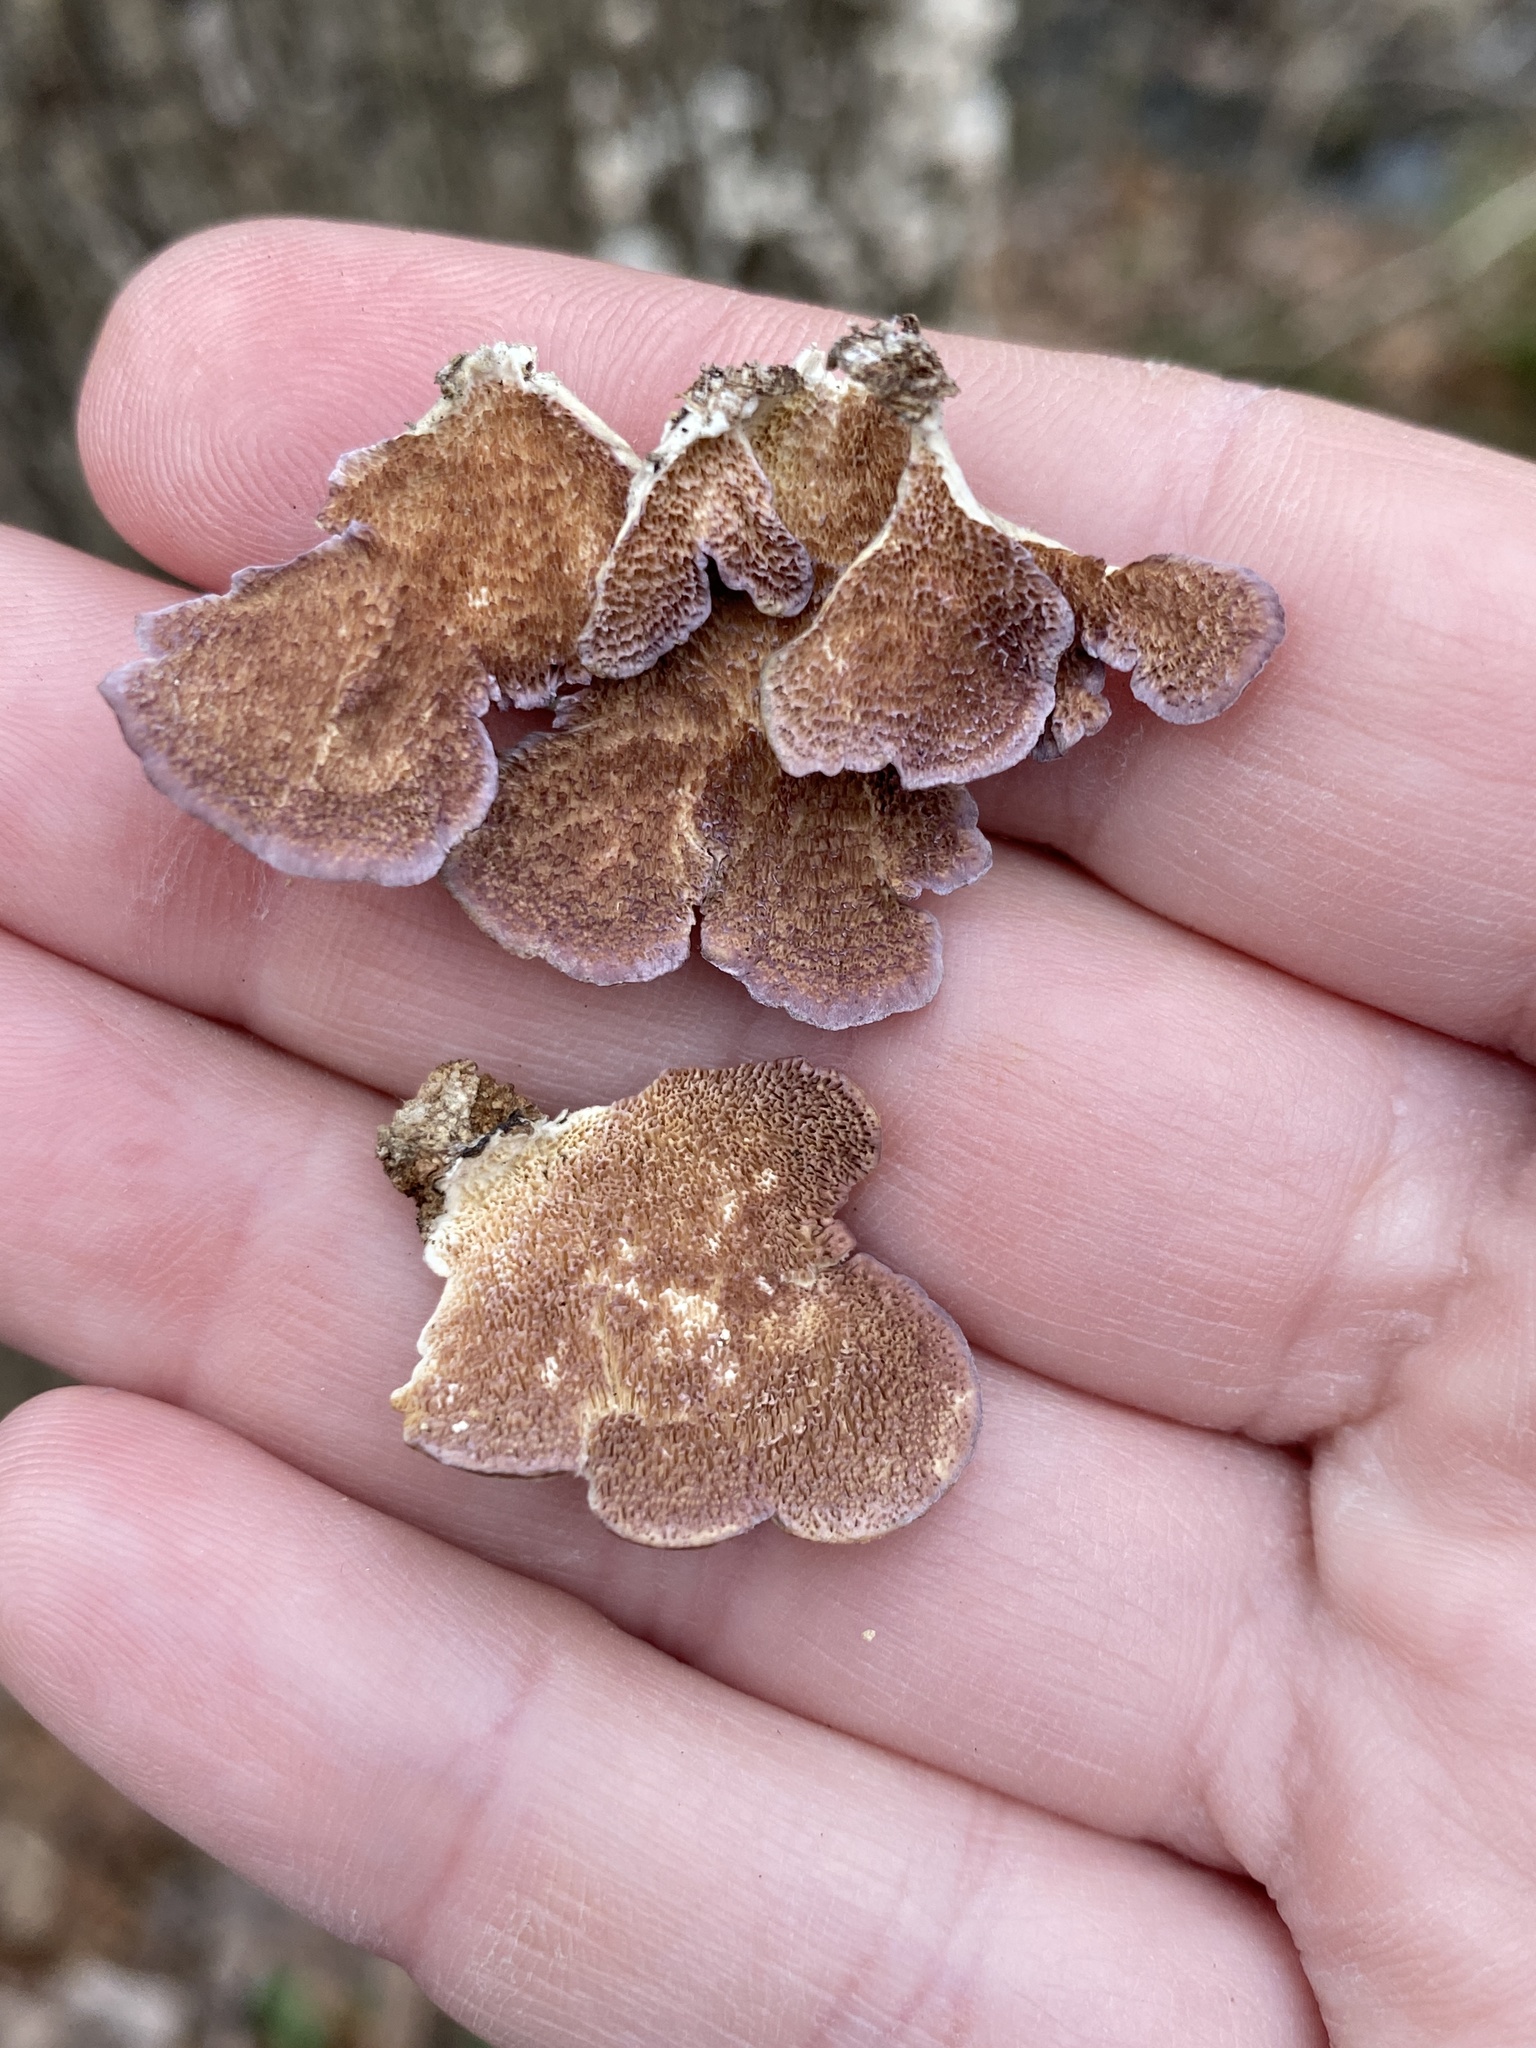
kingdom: Fungi
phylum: Basidiomycota
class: Agaricomycetes
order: Hymenochaetales
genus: Trichaptum
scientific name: Trichaptum biforme
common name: Violet-toothed polypore
